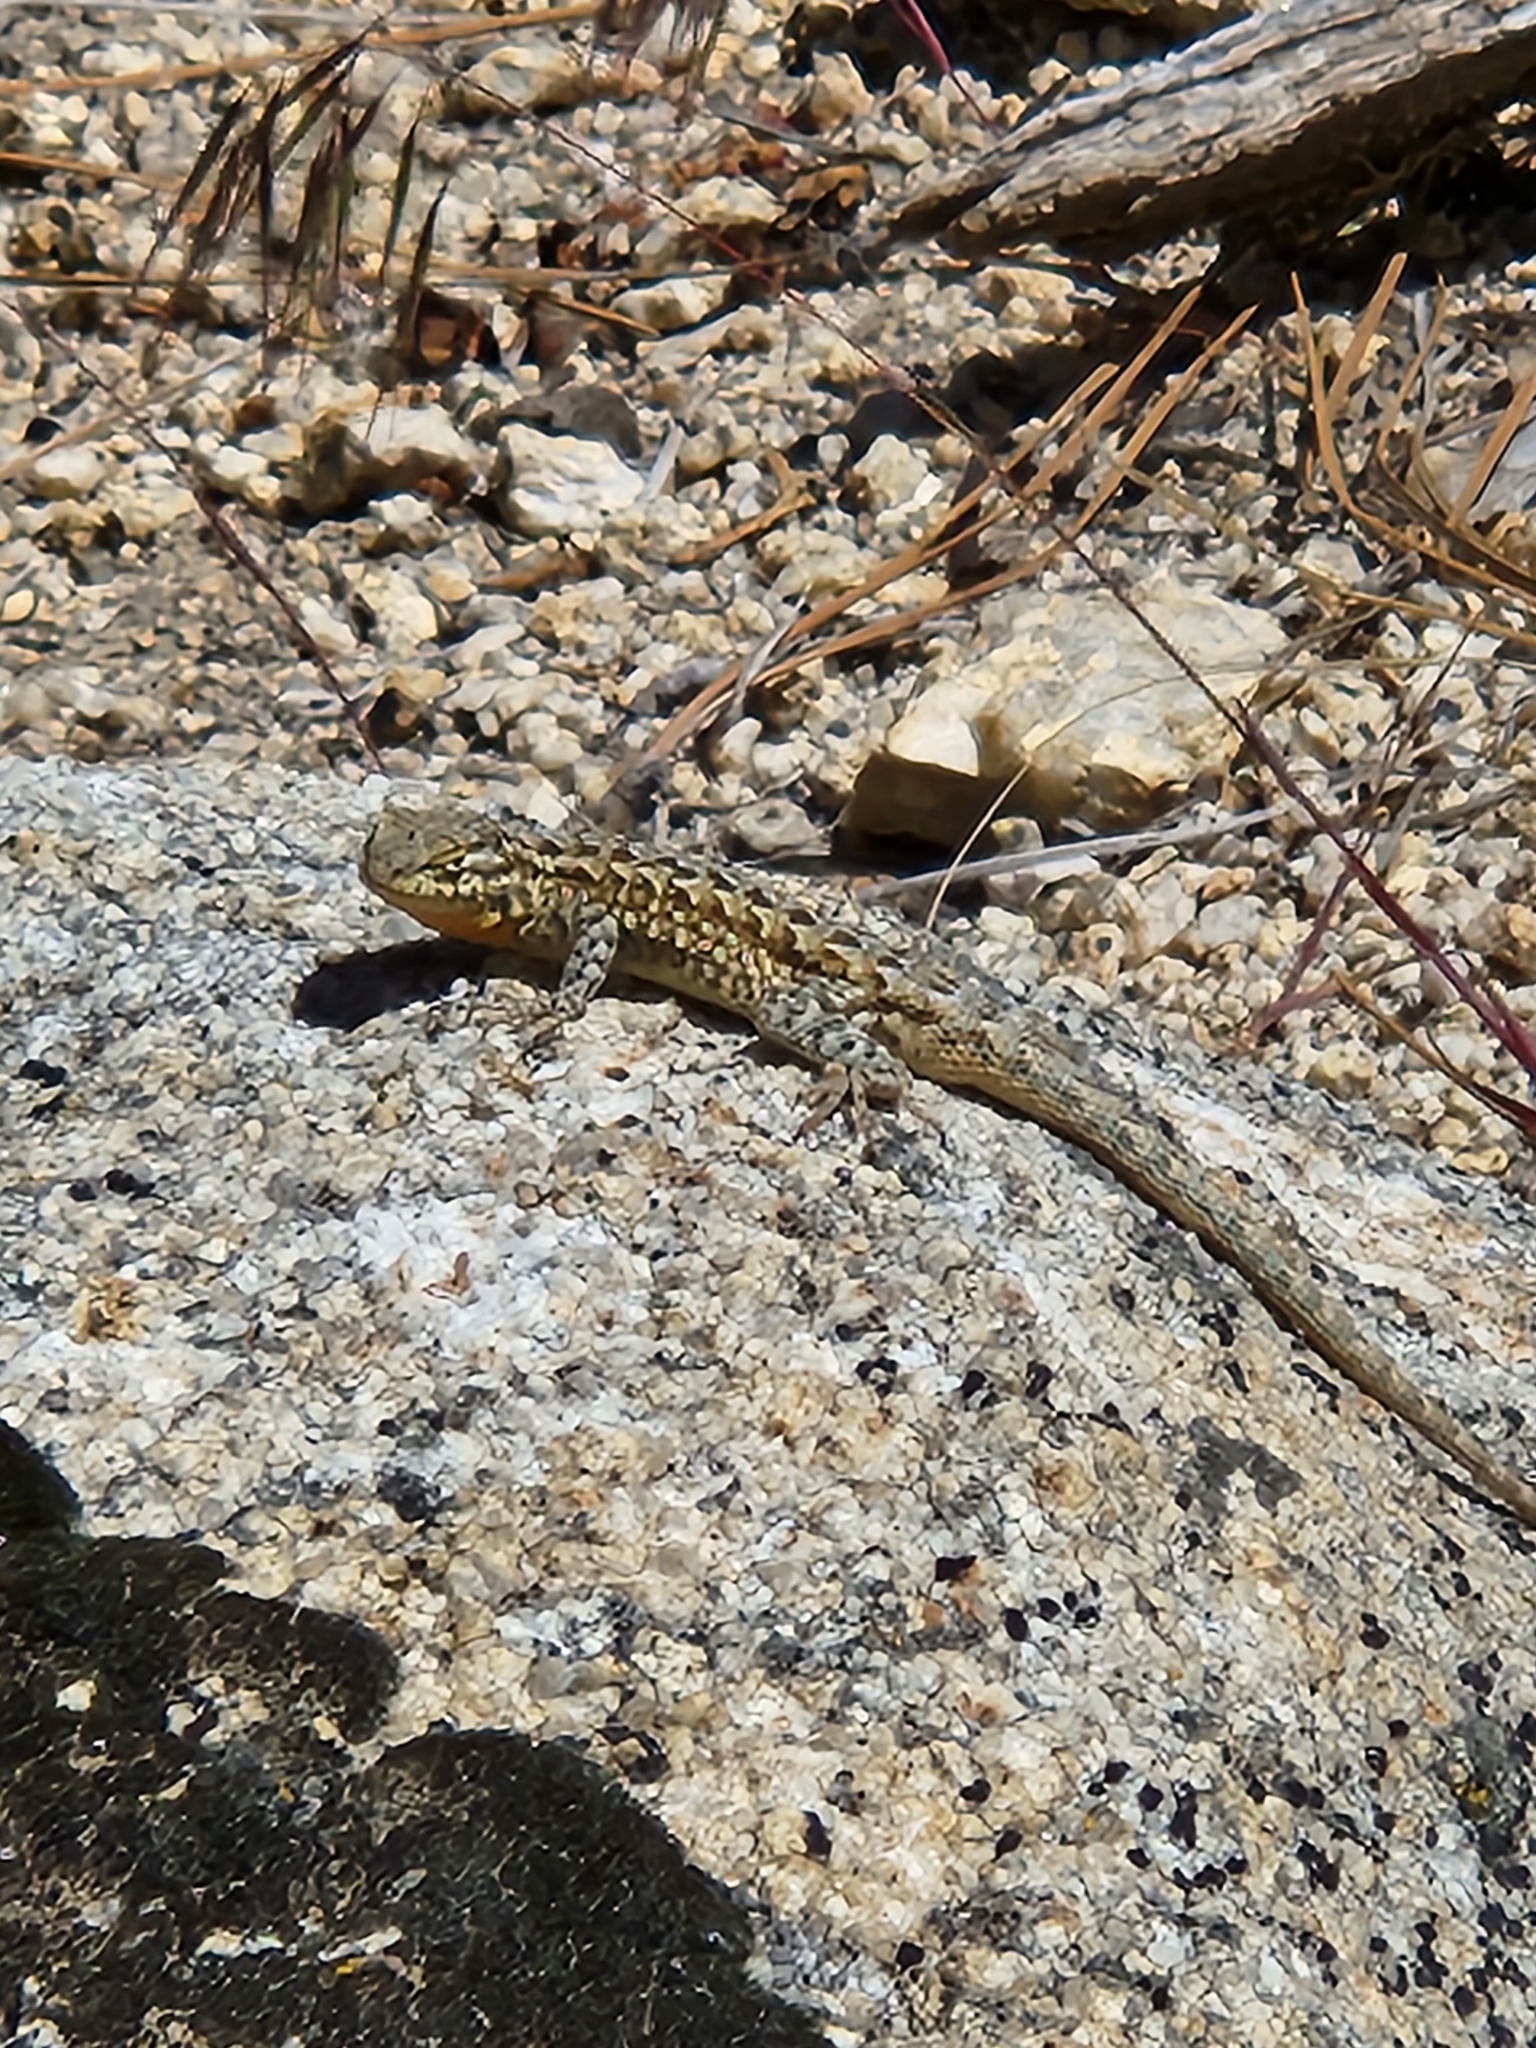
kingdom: Animalia
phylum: Chordata
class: Squamata
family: Phrynosomatidae
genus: Uta
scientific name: Uta stansburiana
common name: Side-blotched lizard
